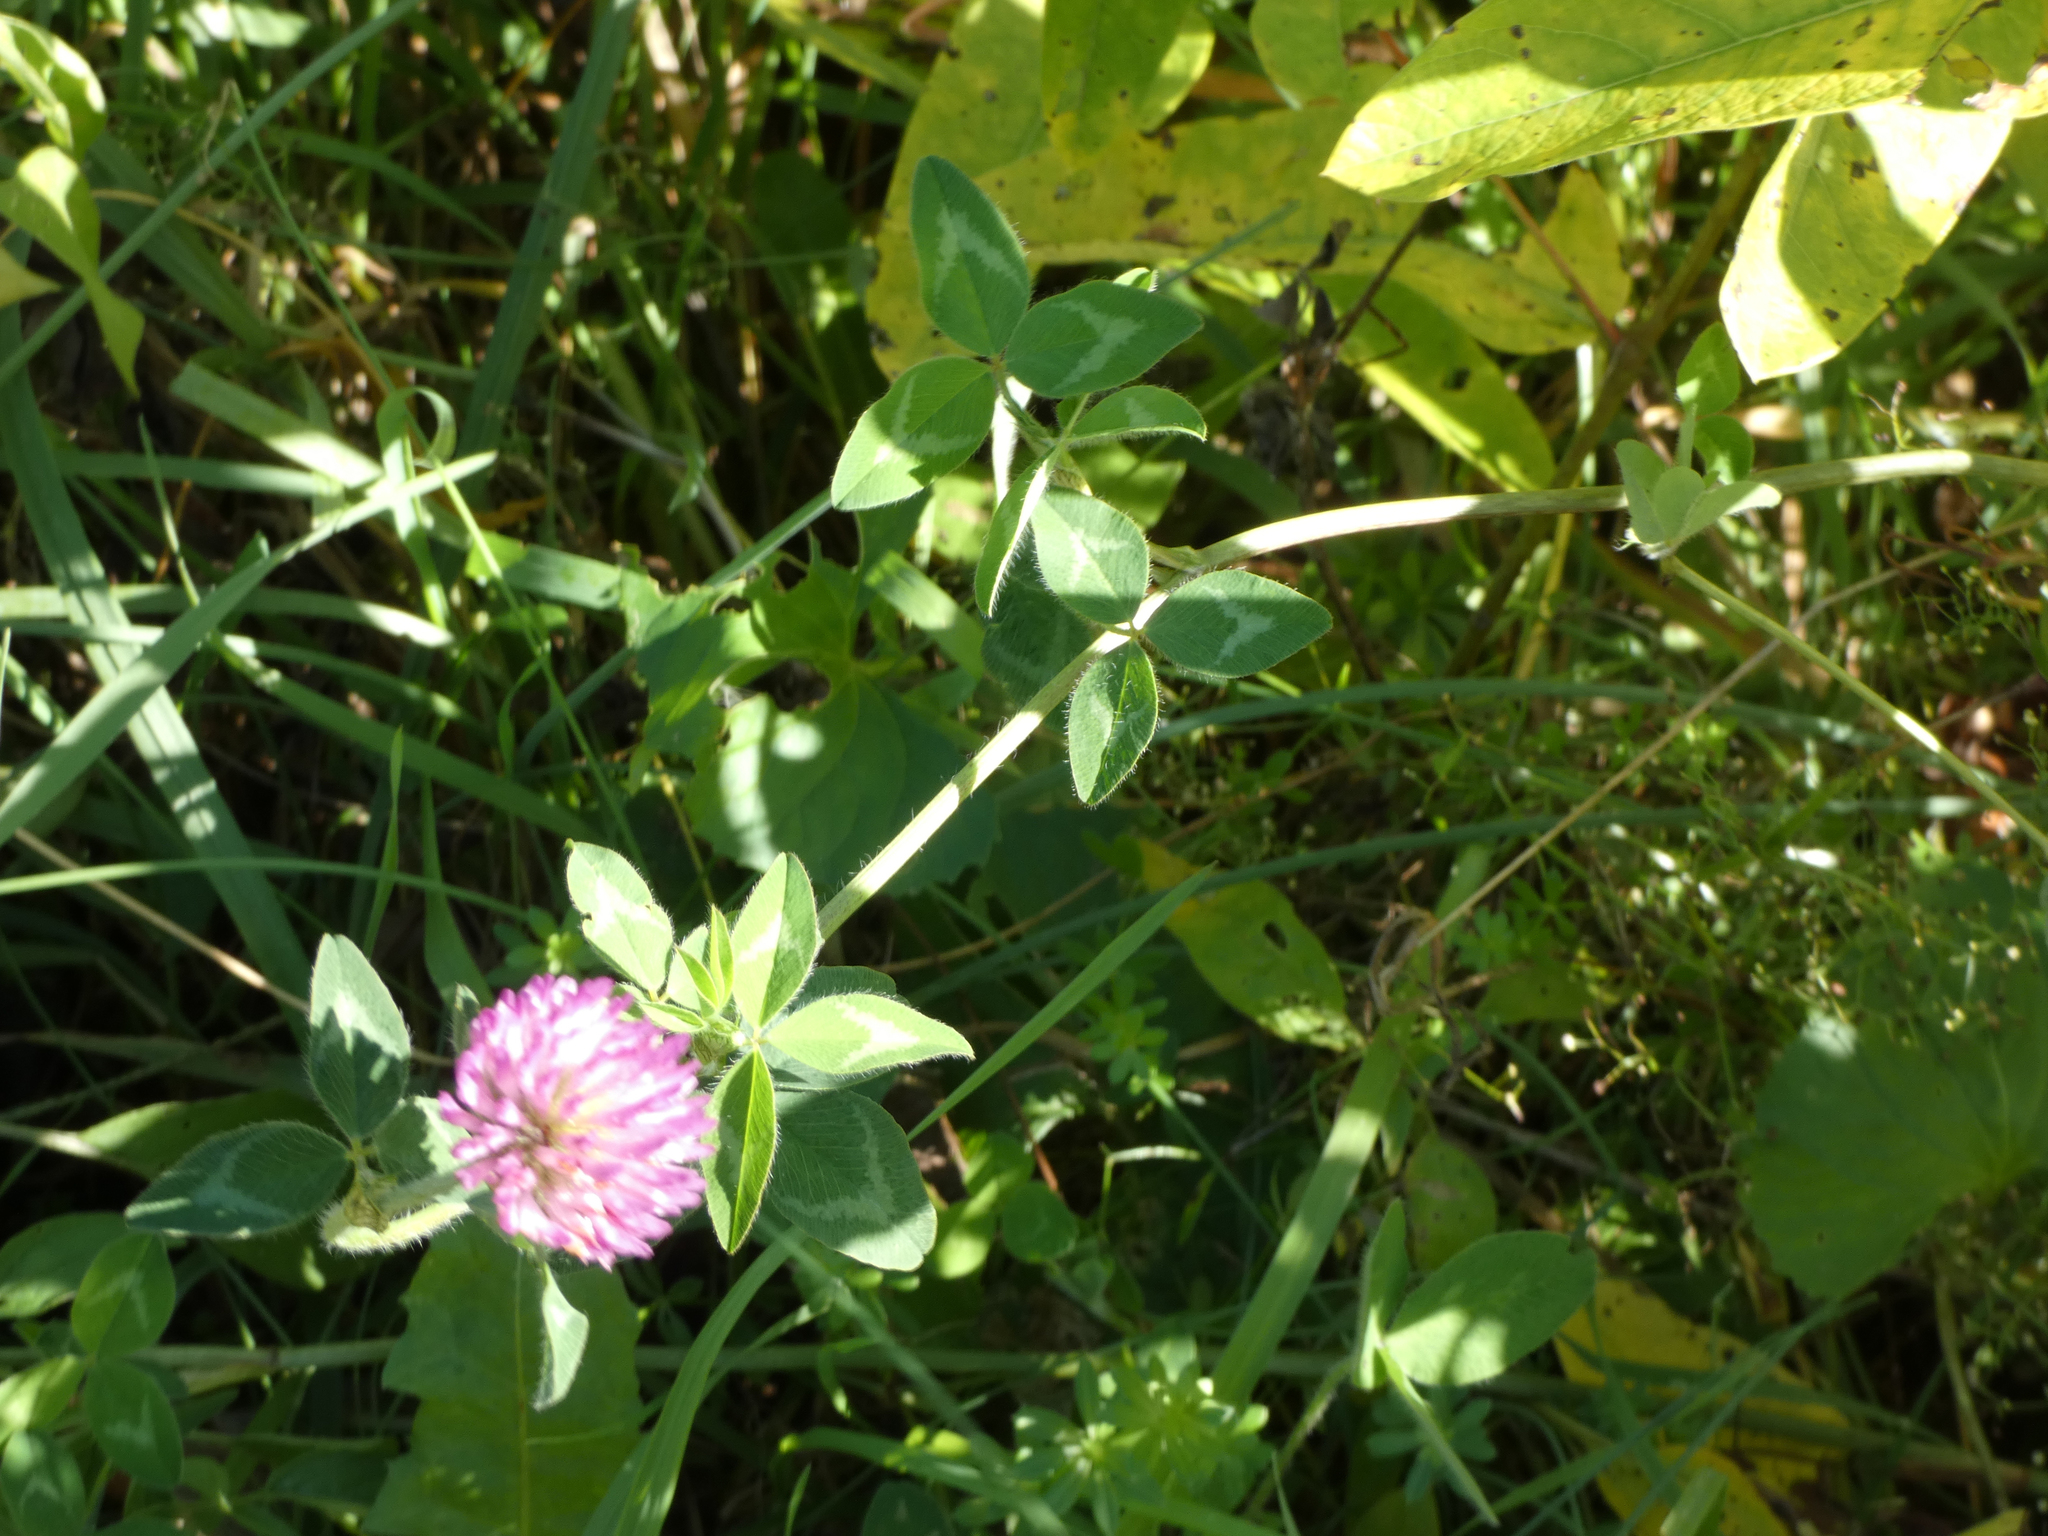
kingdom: Plantae
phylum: Tracheophyta
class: Magnoliopsida
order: Fabales
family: Fabaceae
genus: Trifolium
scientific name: Trifolium pratense
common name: Red clover
